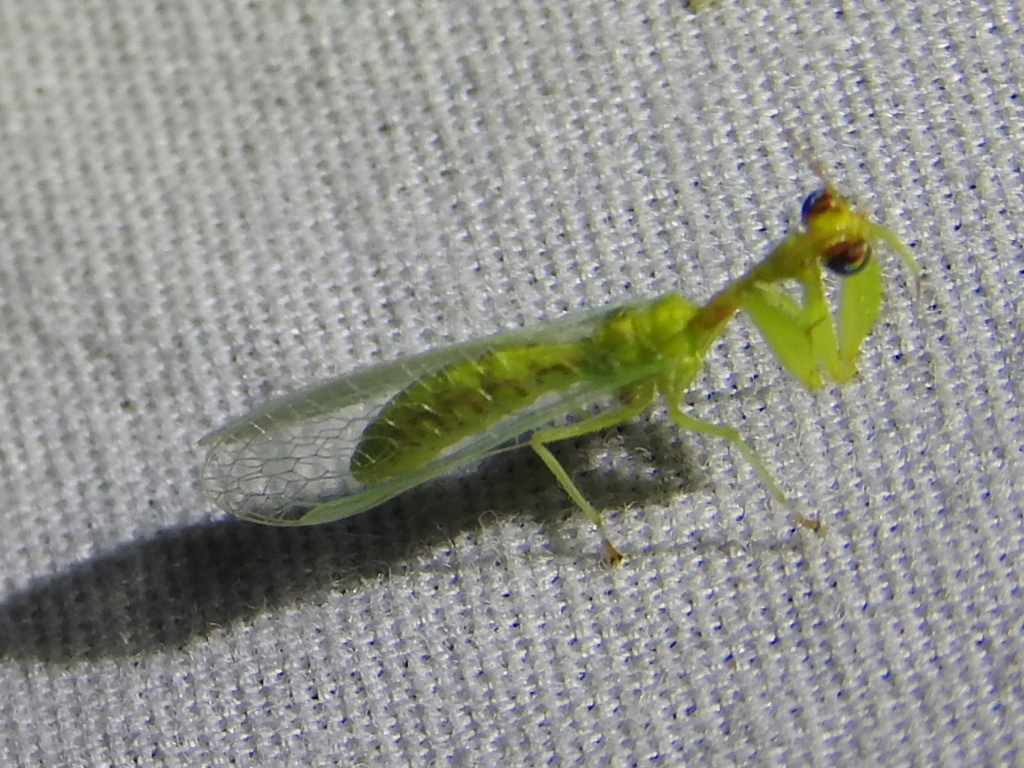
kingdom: Animalia
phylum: Arthropoda
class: Insecta
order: Neuroptera
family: Mantispidae
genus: Zeugomantispa
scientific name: Zeugomantispa minuta
